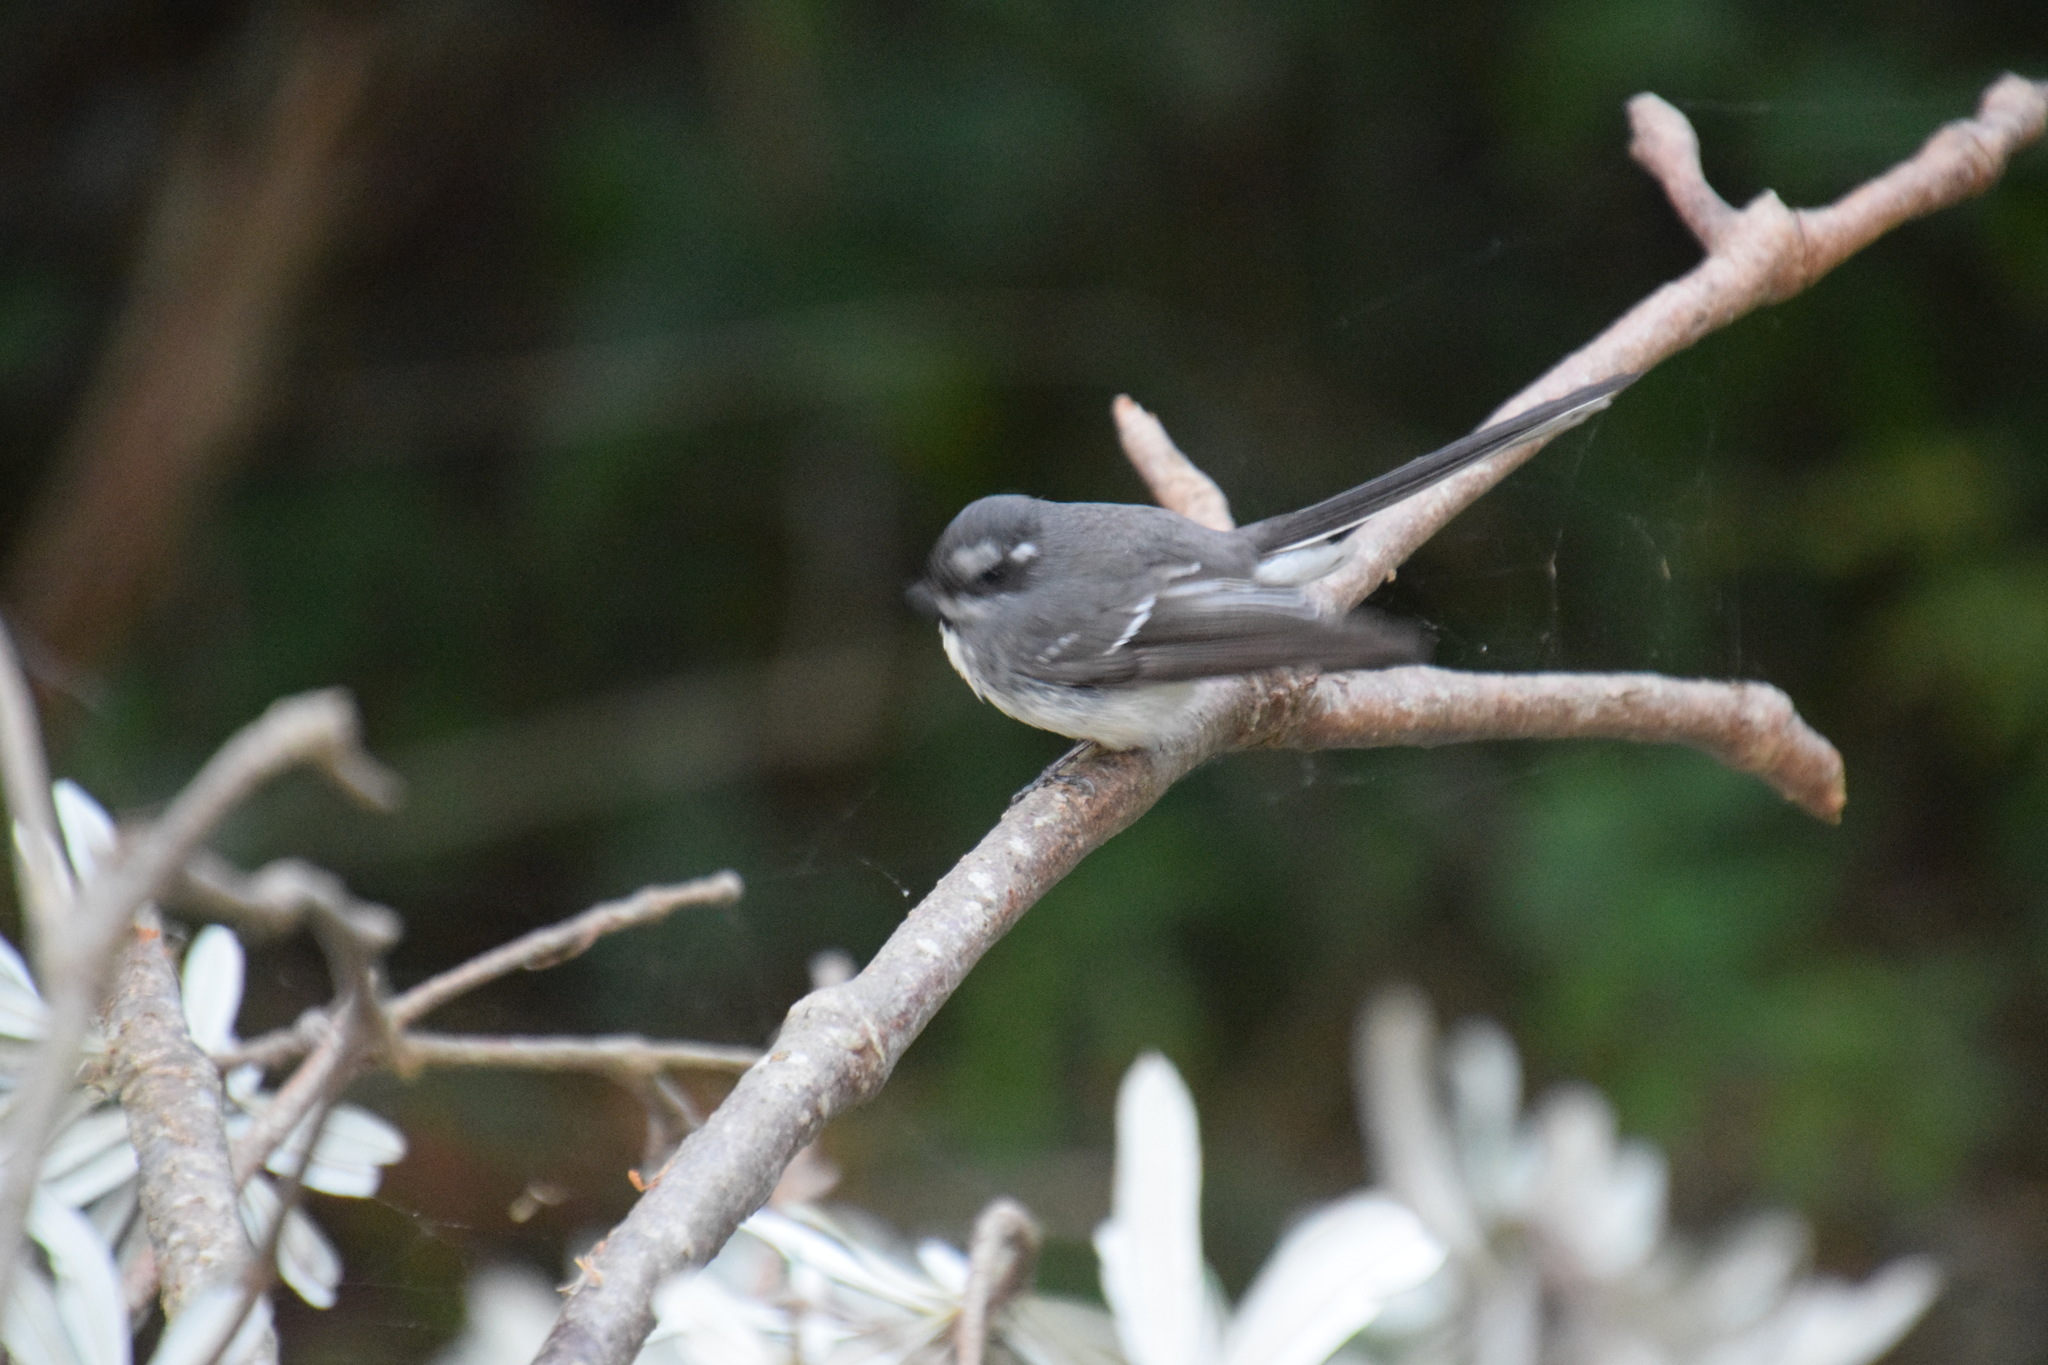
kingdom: Animalia
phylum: Chordata
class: Aves
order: Passeriformes
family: Rhipiduridae
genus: Rhipidura
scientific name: Rhipidura albiscapa
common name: Grey fantail
